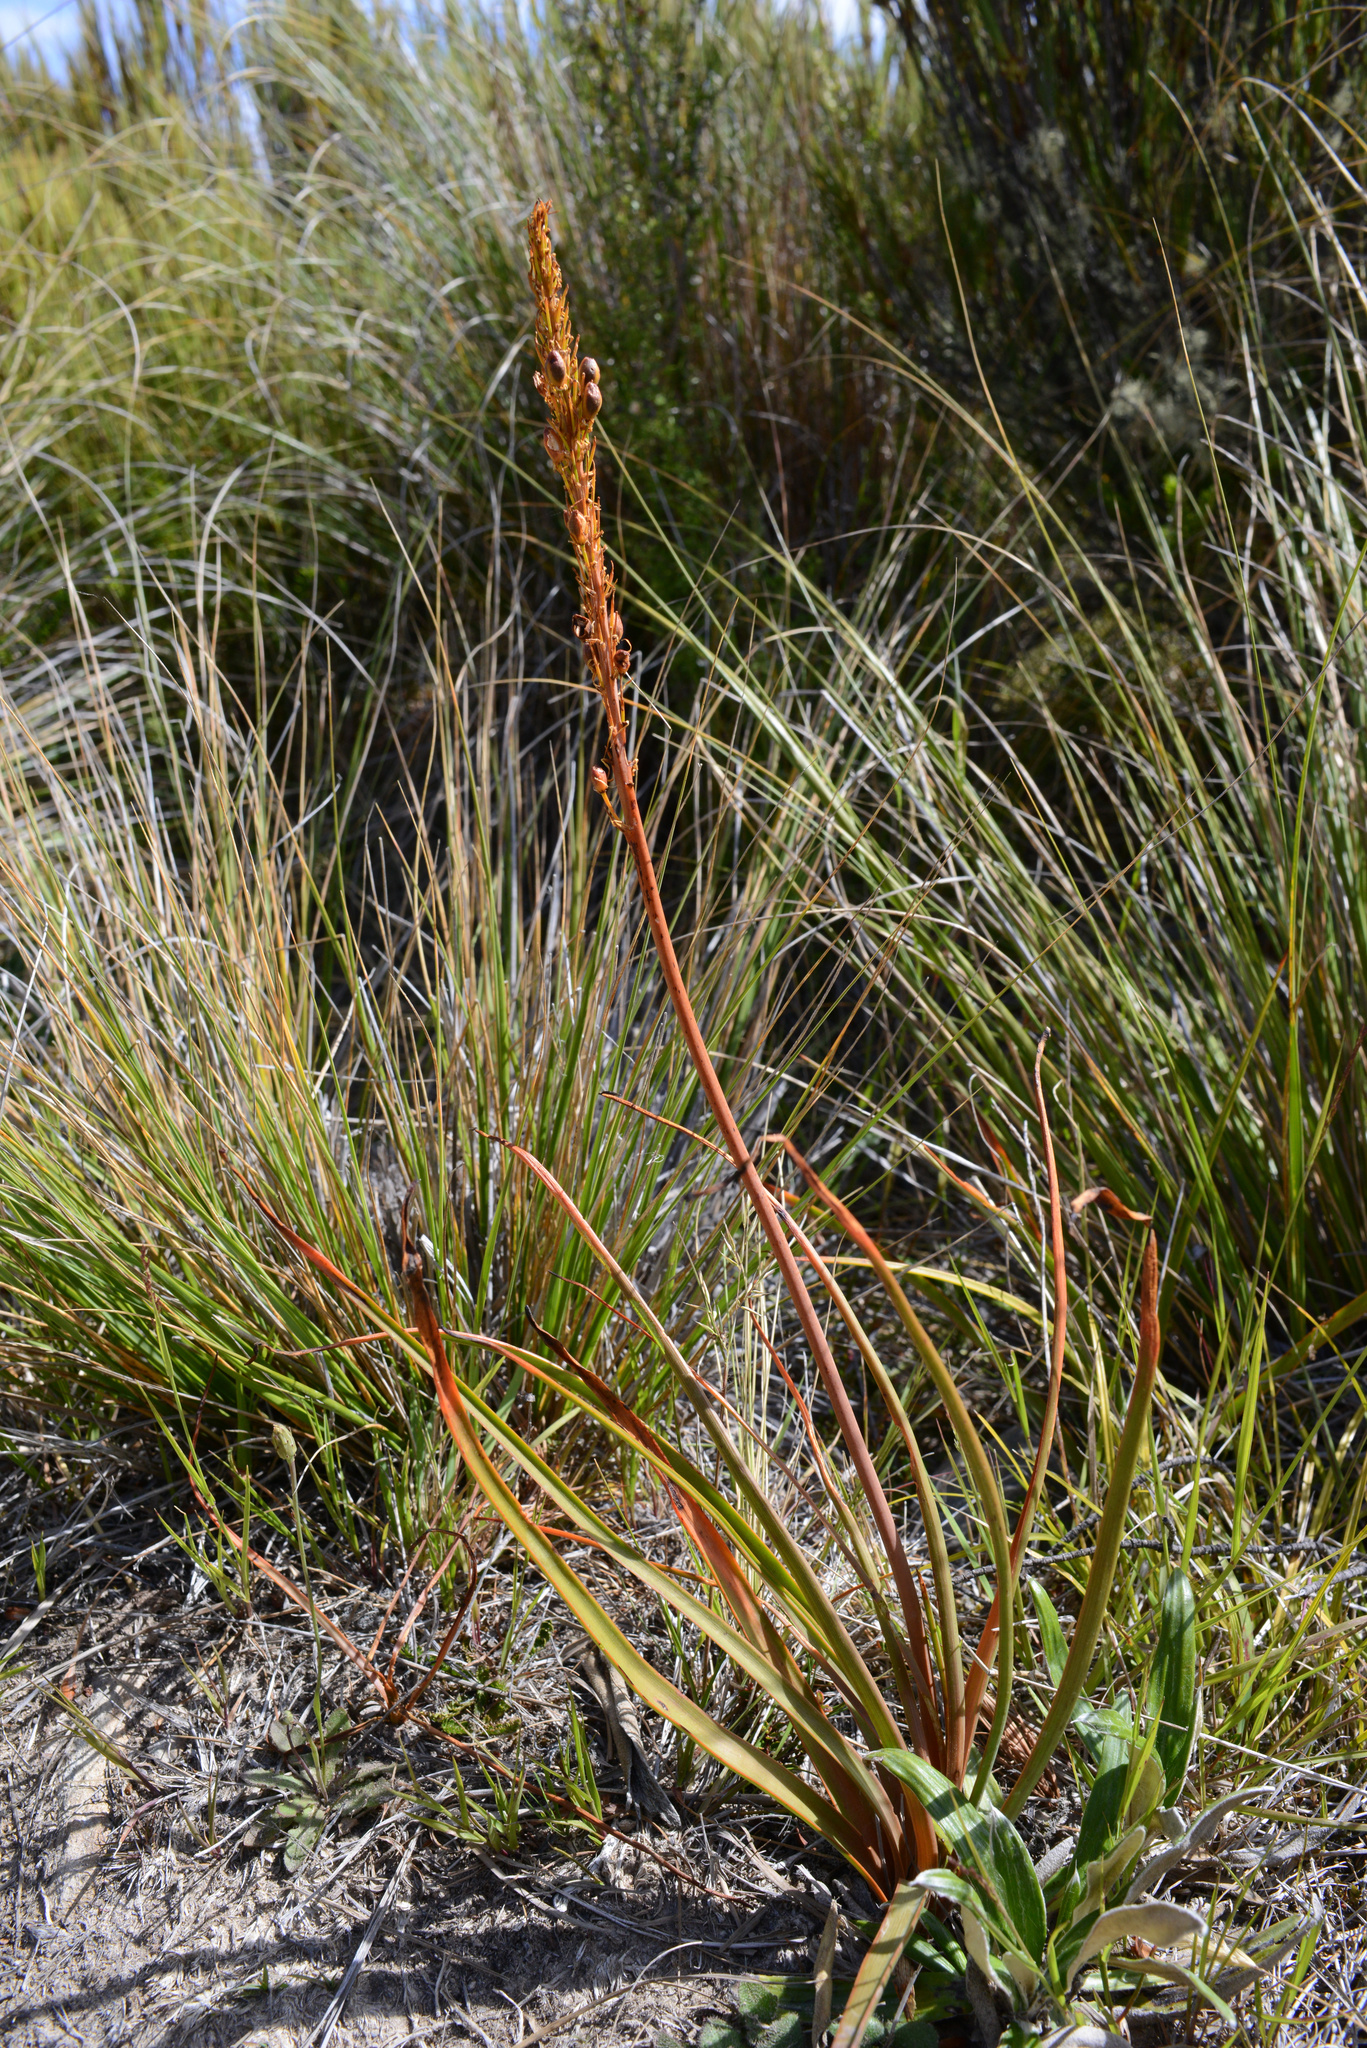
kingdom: Plantae
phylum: Tracheophyta
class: Liliopsida
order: Asparagales
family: Asphodelaceae
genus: Bulbinella
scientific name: Bulbinella angustifolia
